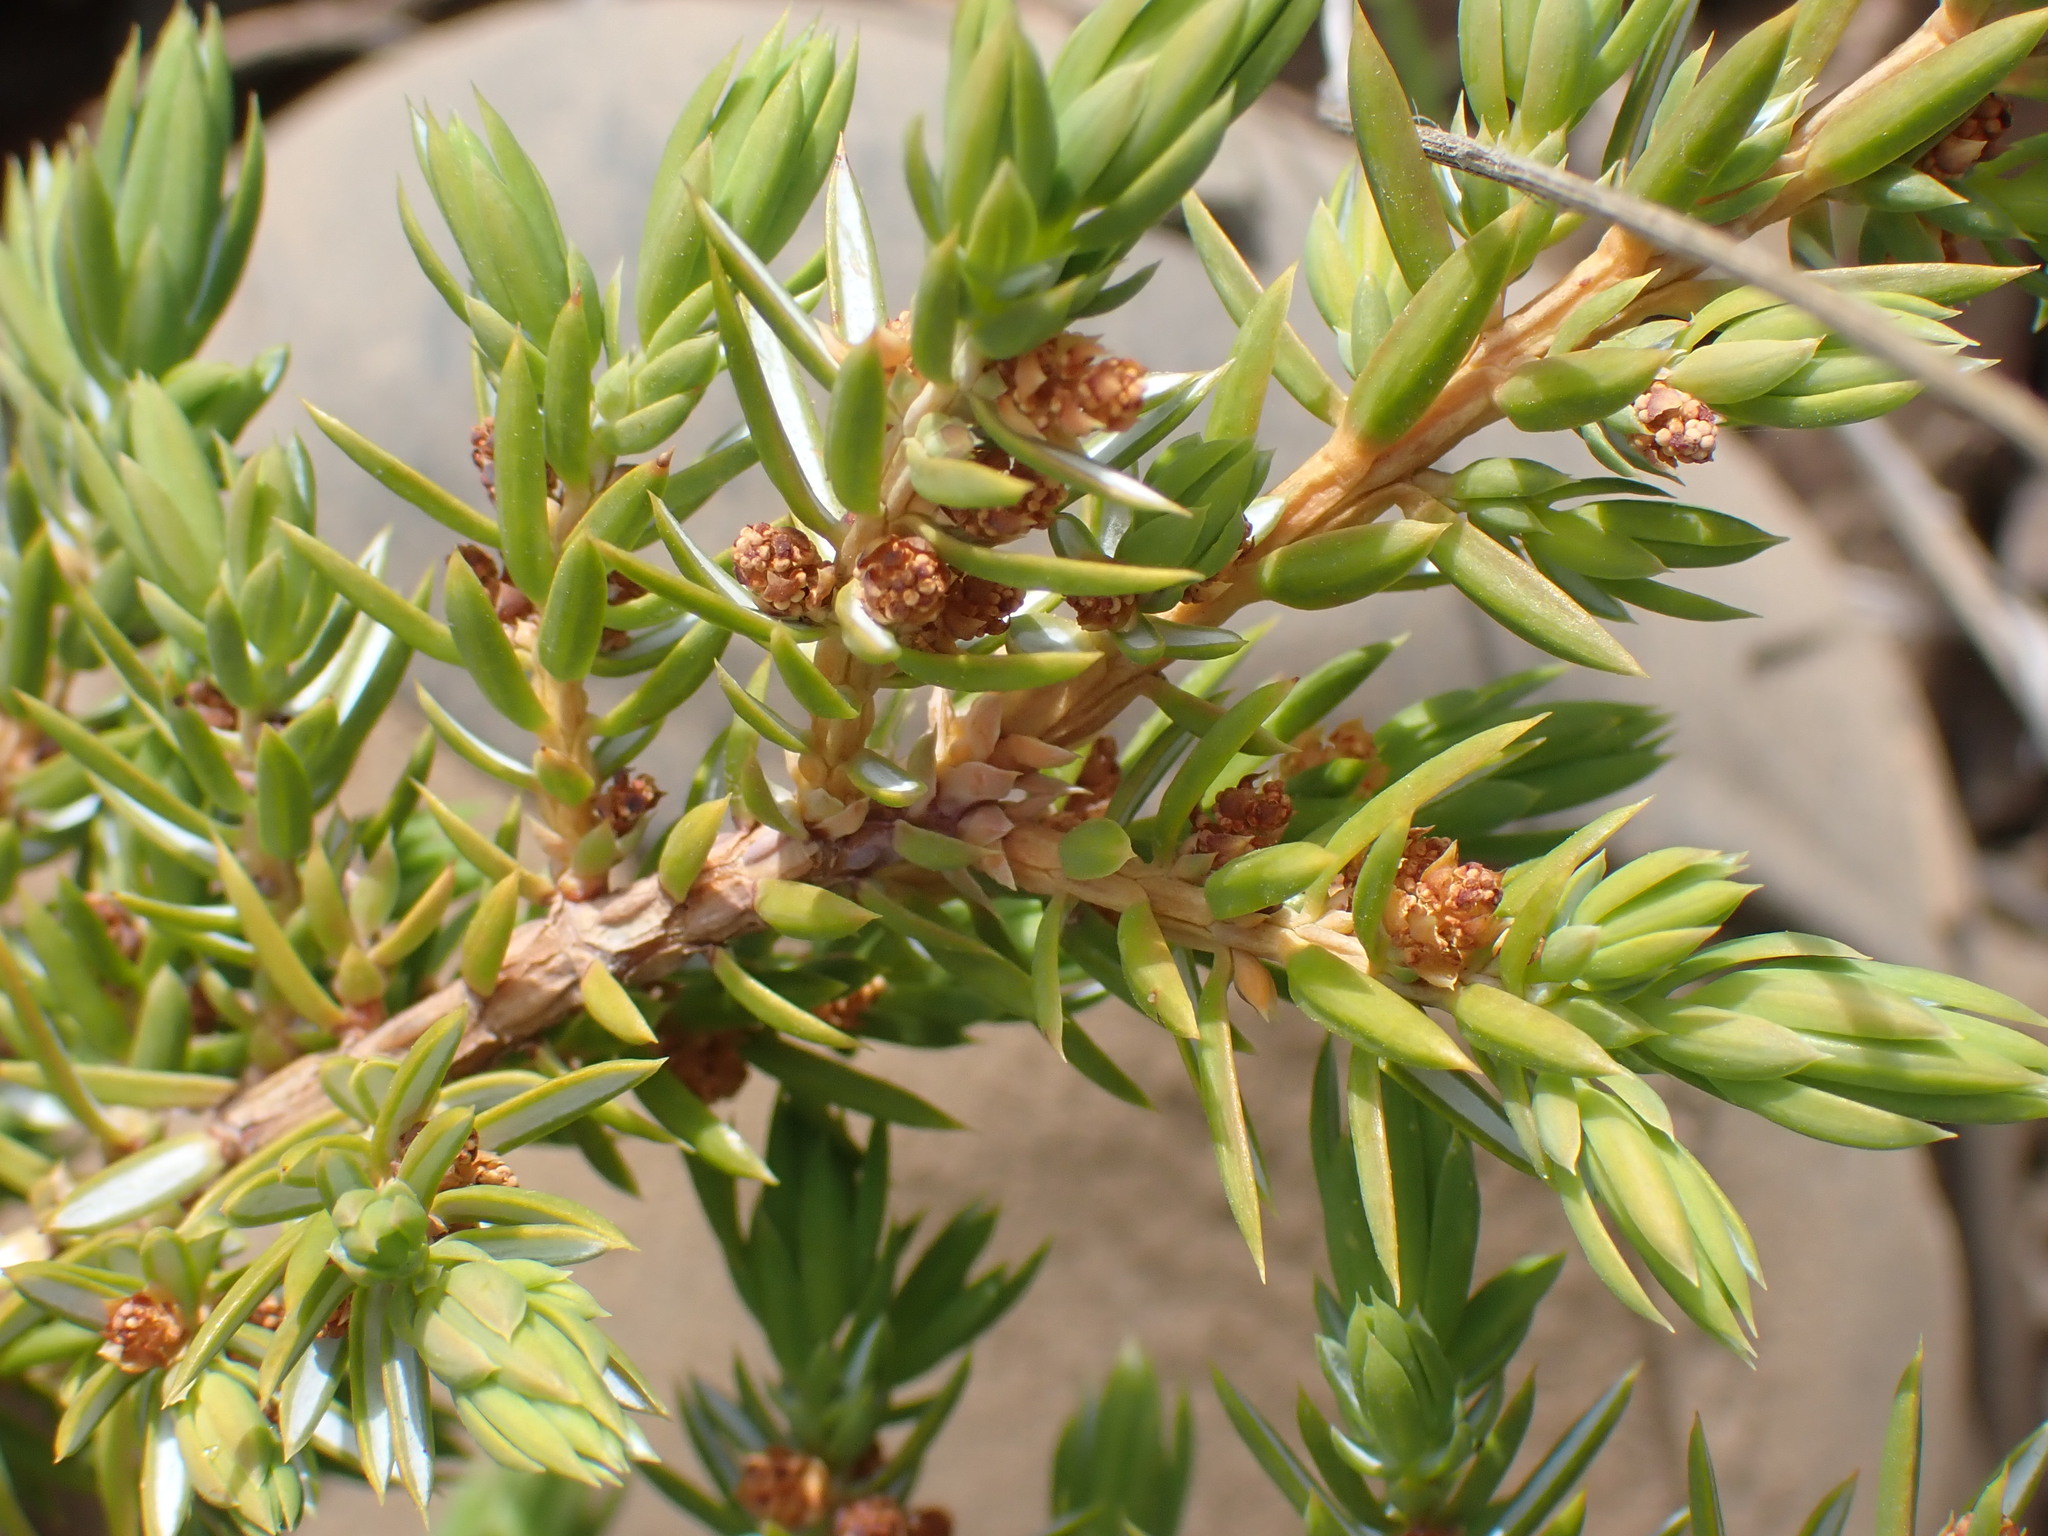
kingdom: Plantae
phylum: Tracheophyta
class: Pinopsida
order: Pinales
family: Cupressaceae
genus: Juniperus
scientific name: Juniperus communis
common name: Common juniper
